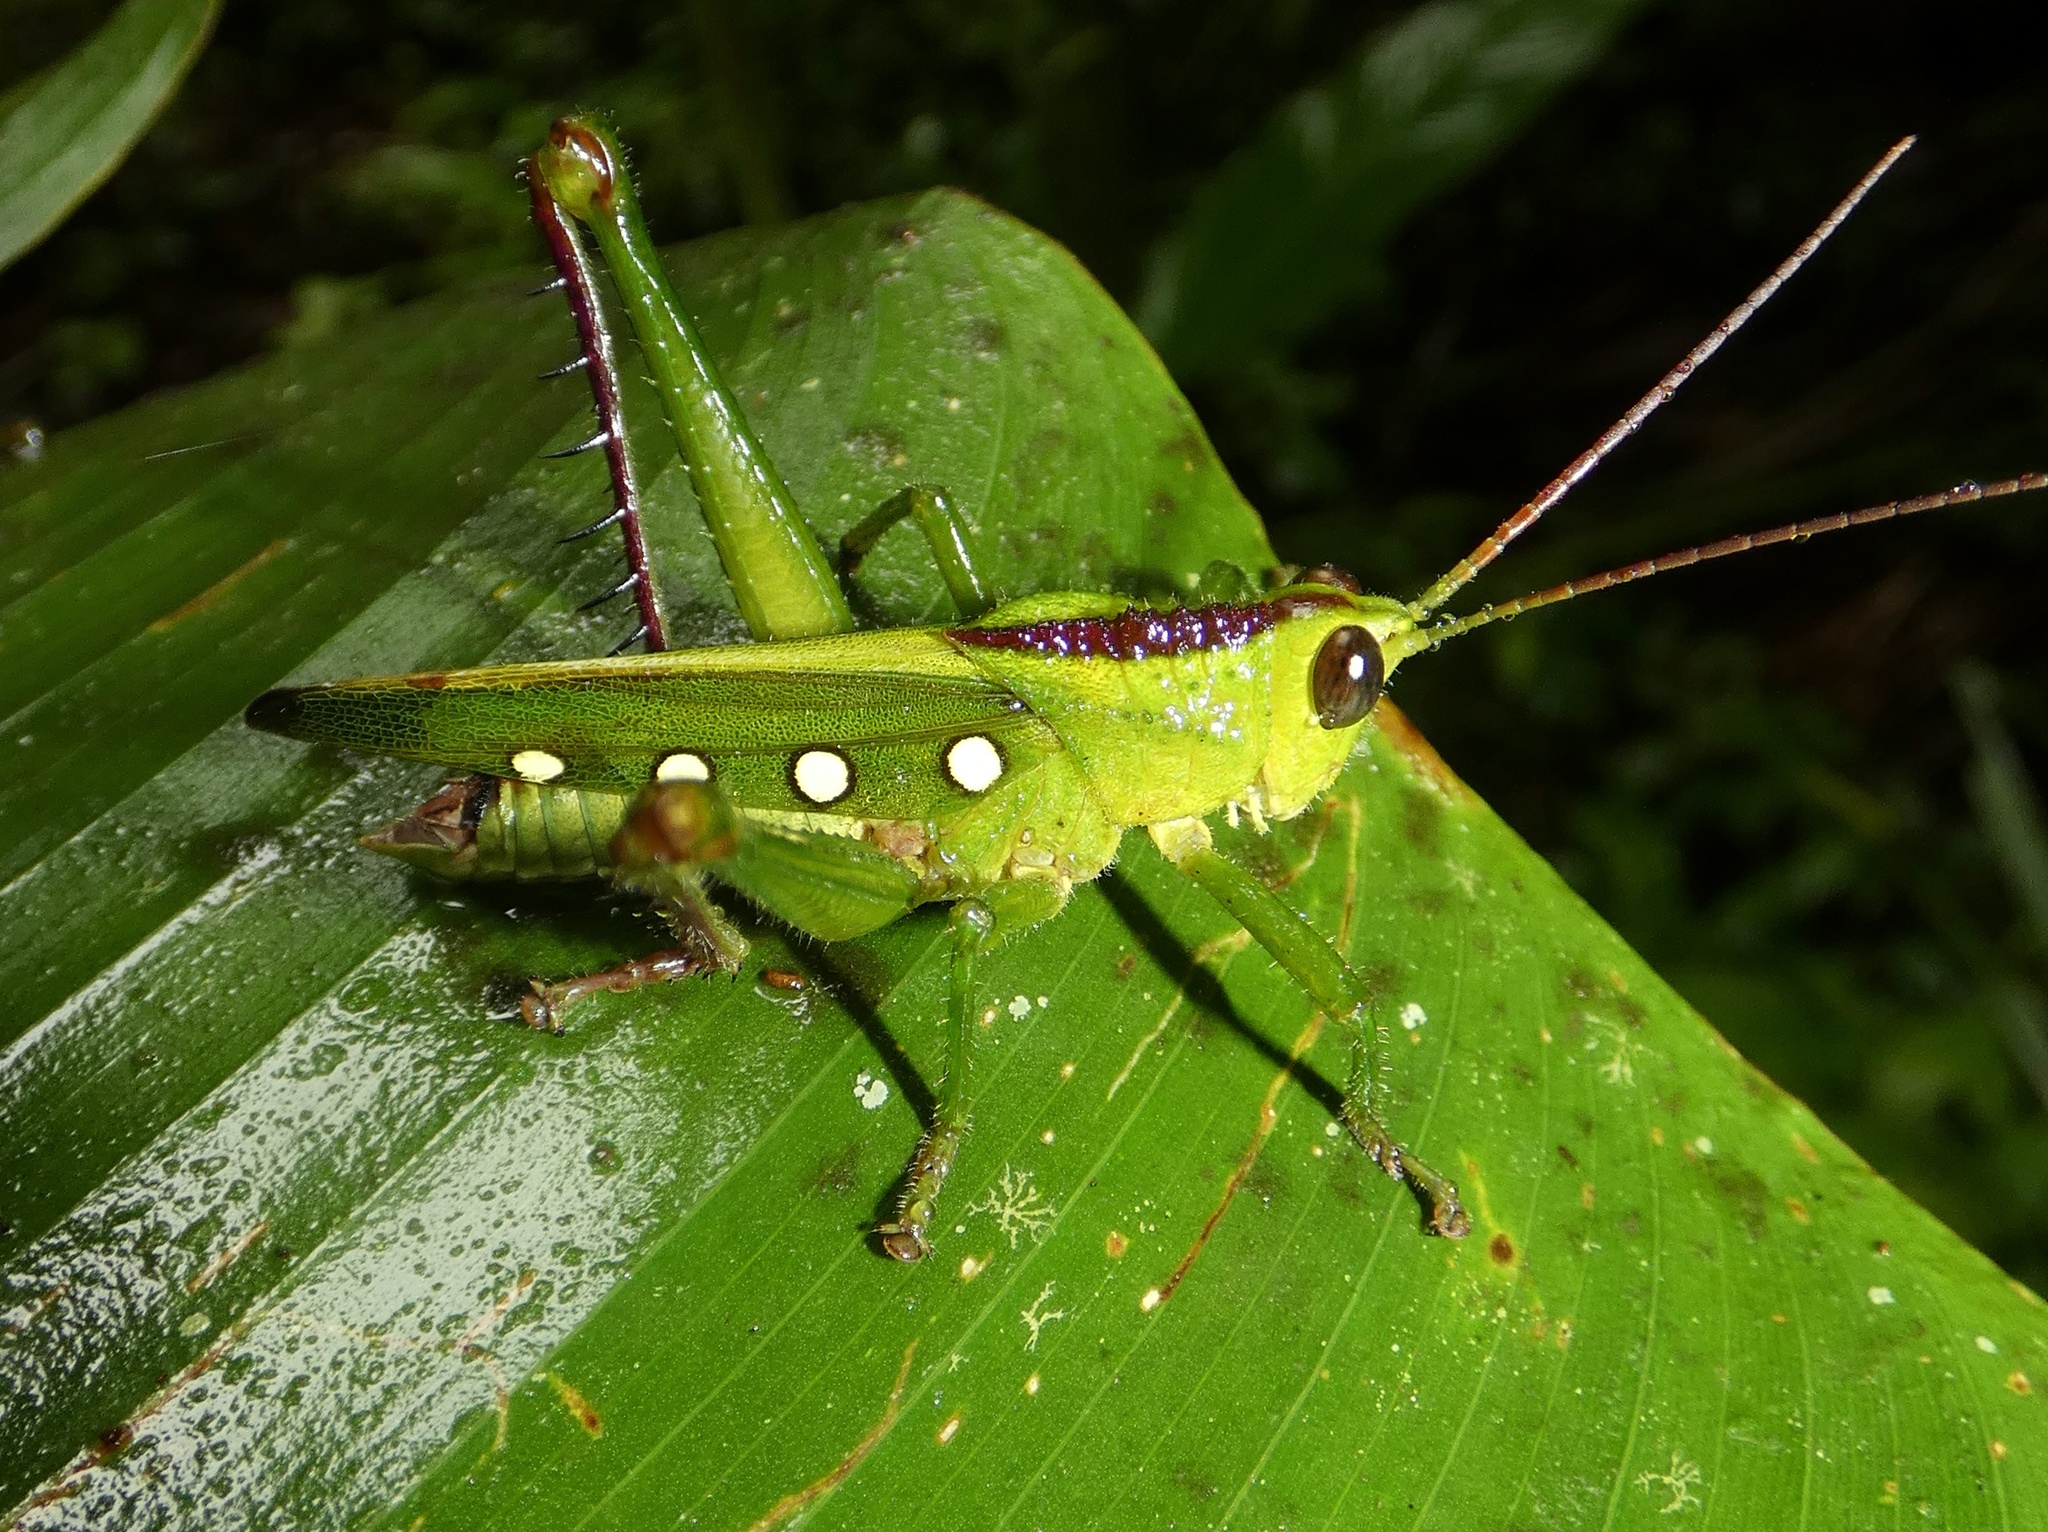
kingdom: Animalia
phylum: Arthropoda
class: Insecta
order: Orthoptera
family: Romaleidae
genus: Agriacris
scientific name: Agriacris tricristata
